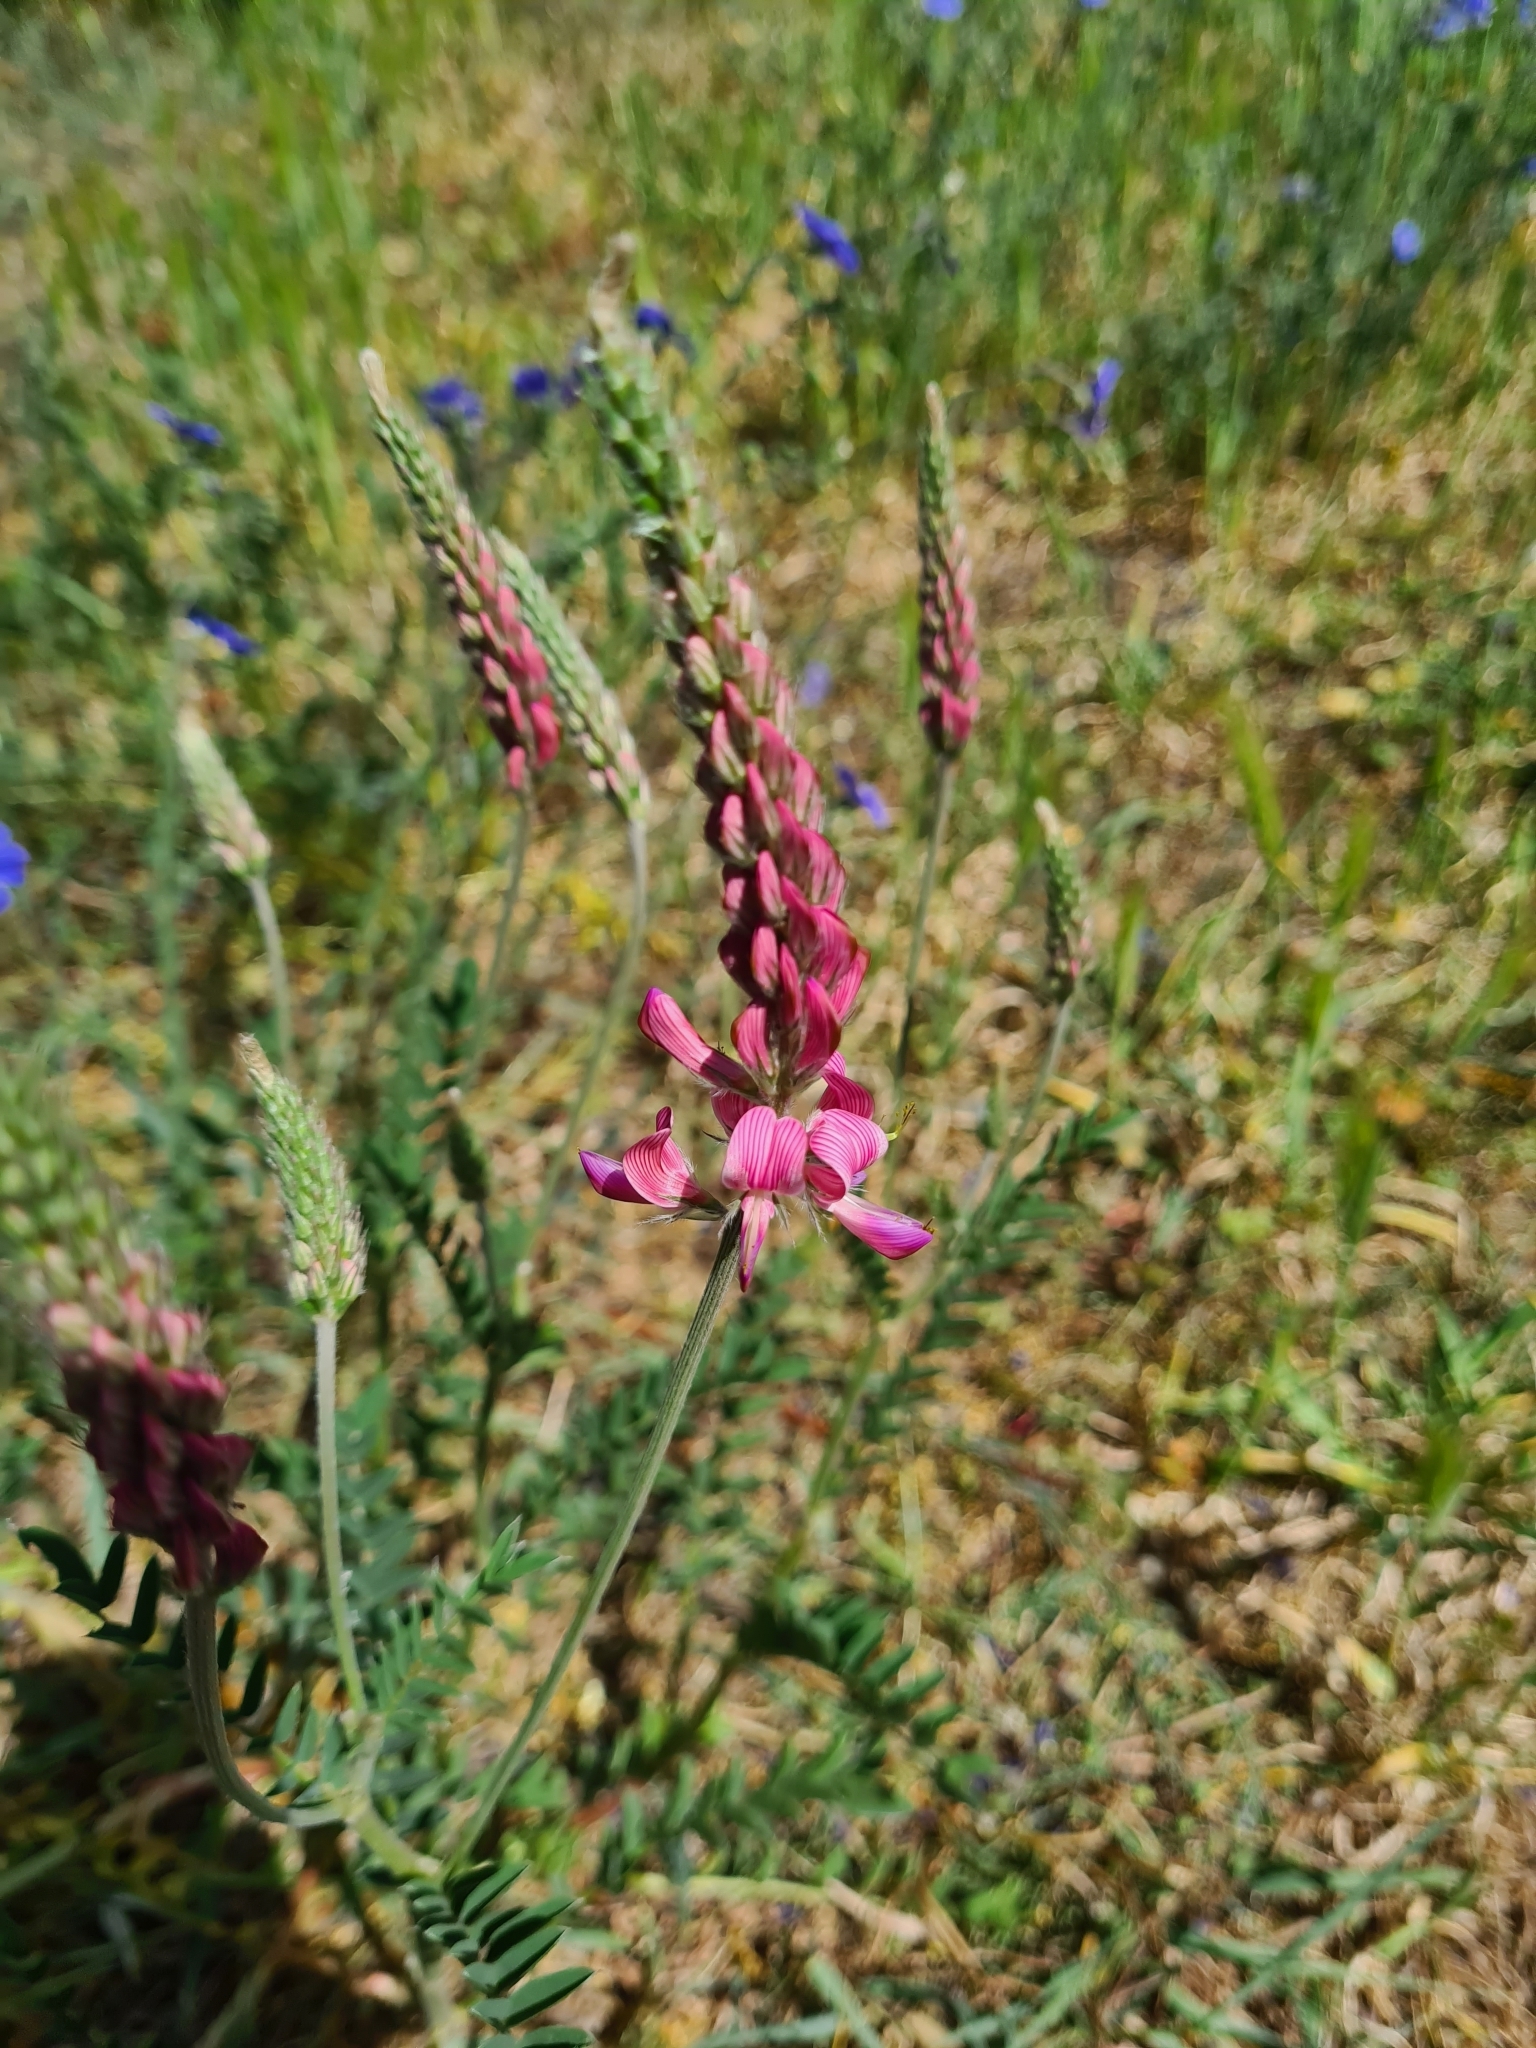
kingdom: Plantae
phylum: Tracheophyta
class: Magnoliopsida
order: Fabales
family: Fabaceae
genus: Onobrychis
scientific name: Onobrychis viciifolia
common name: Sainfoin
